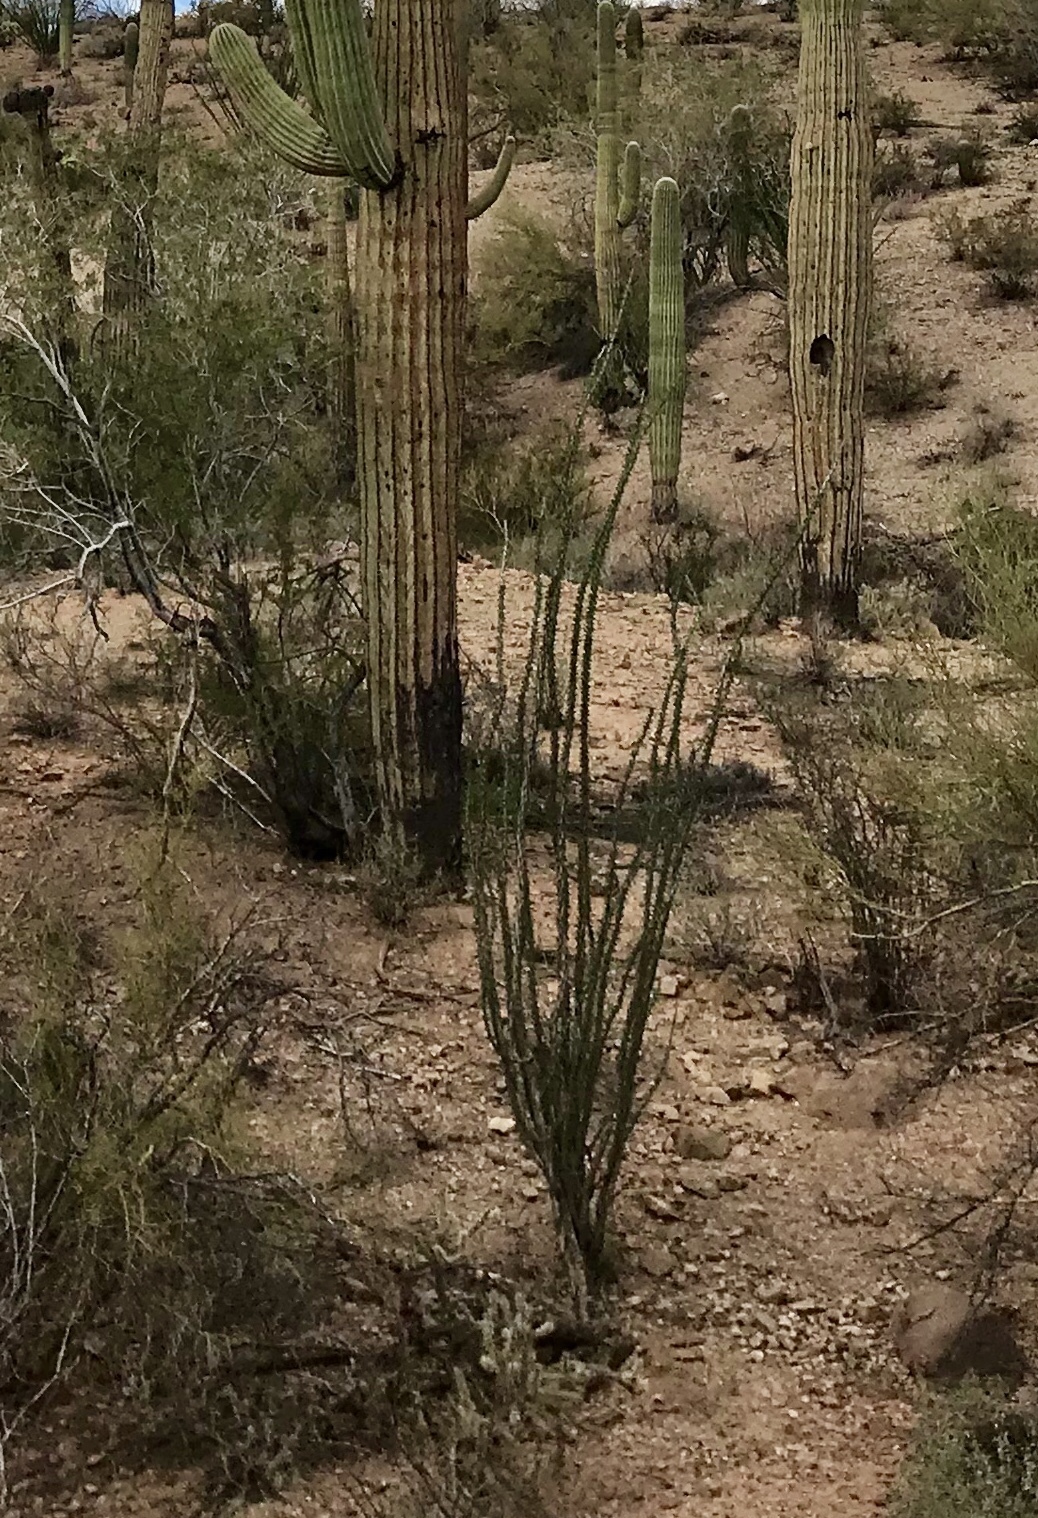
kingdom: Plantae
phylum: Tracheophyta
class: Magnoliopsida
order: Ericales
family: Fouquieriaceae
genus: Fouquieria
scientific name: Fouquieria splendens
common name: Vine-cactus
